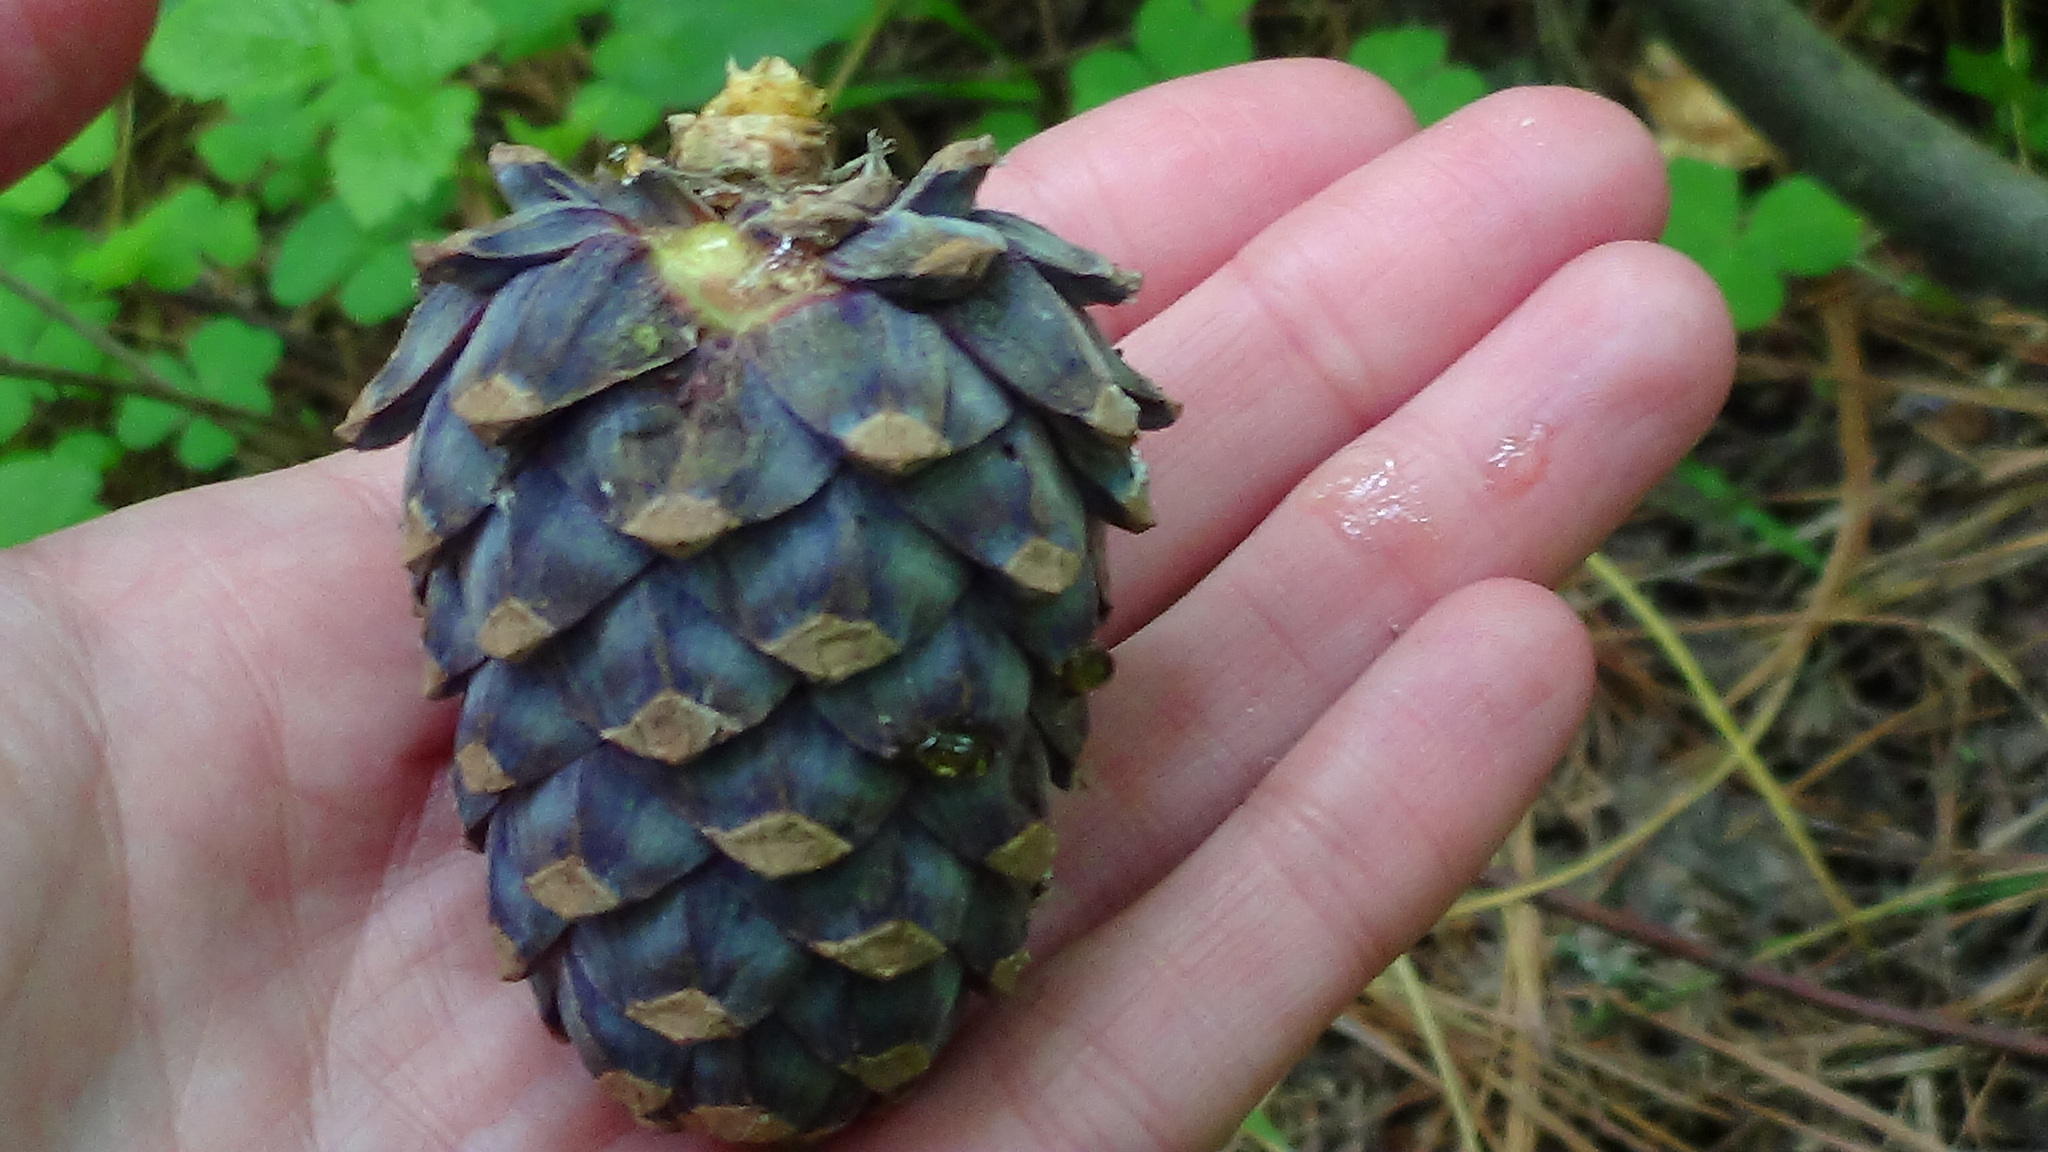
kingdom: Plantae
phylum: Tracheophyta
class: Pinopsida
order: Pinales
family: Pinaceae
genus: Pinus
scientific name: Pinus sibirica
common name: Siberian pine
